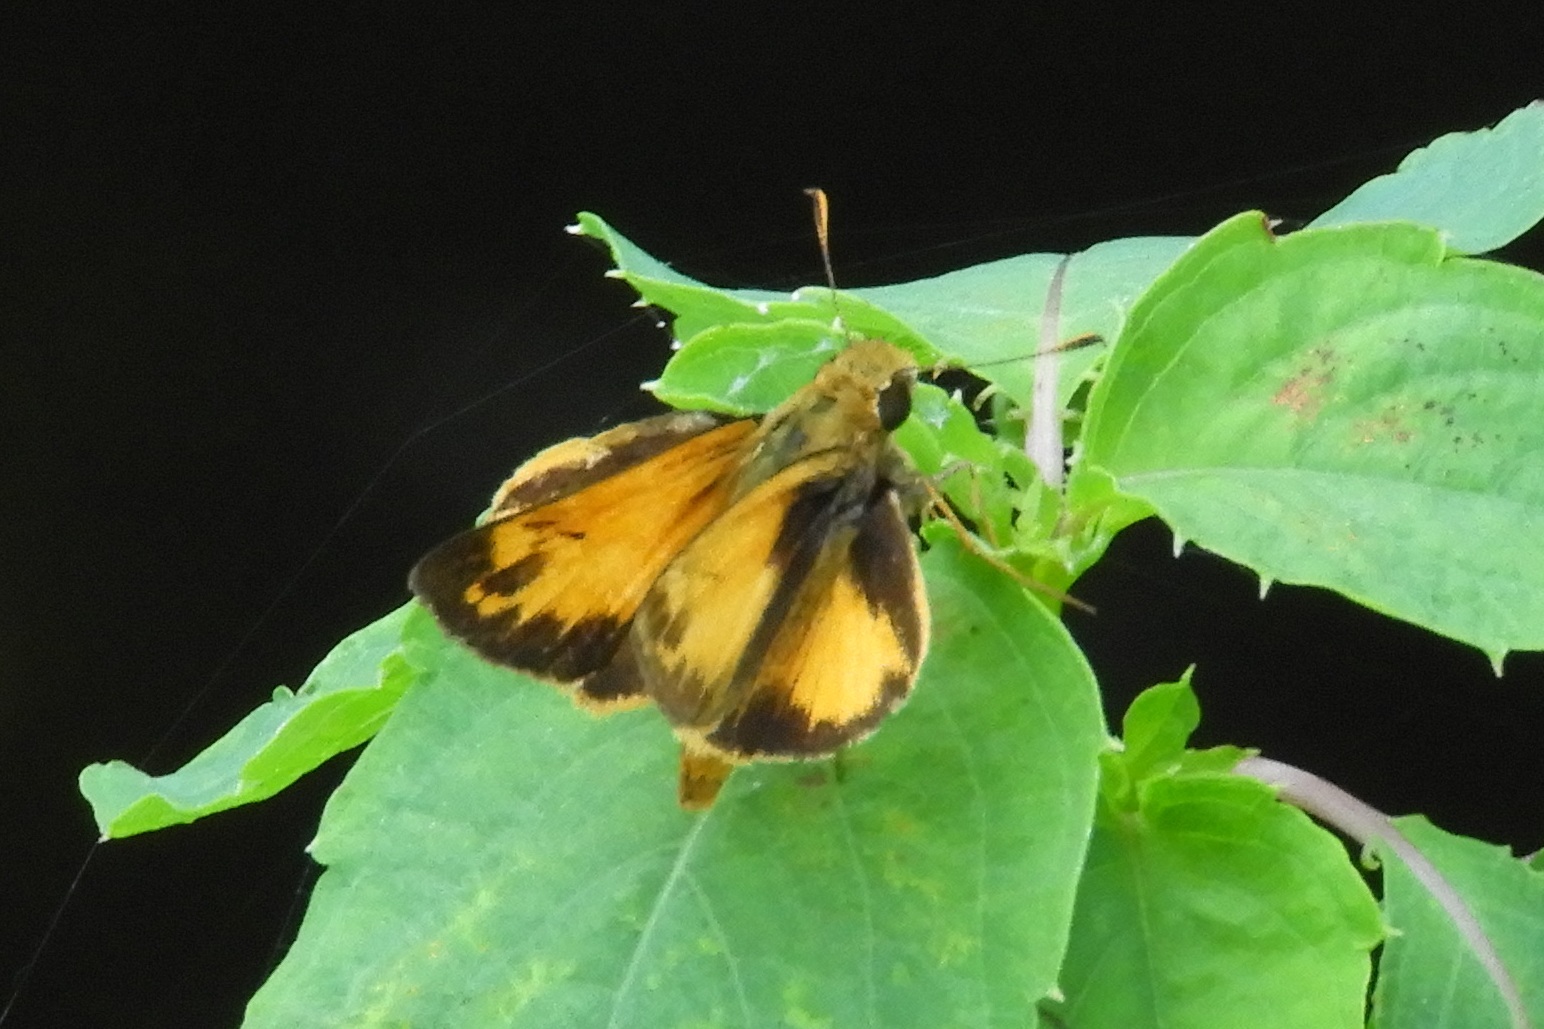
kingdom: Animalia
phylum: Arthropoda
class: Insecta
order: Lepidoptera
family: Hesperiidae
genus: Lon
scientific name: Lon zabulon
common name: Zabulon skipper
